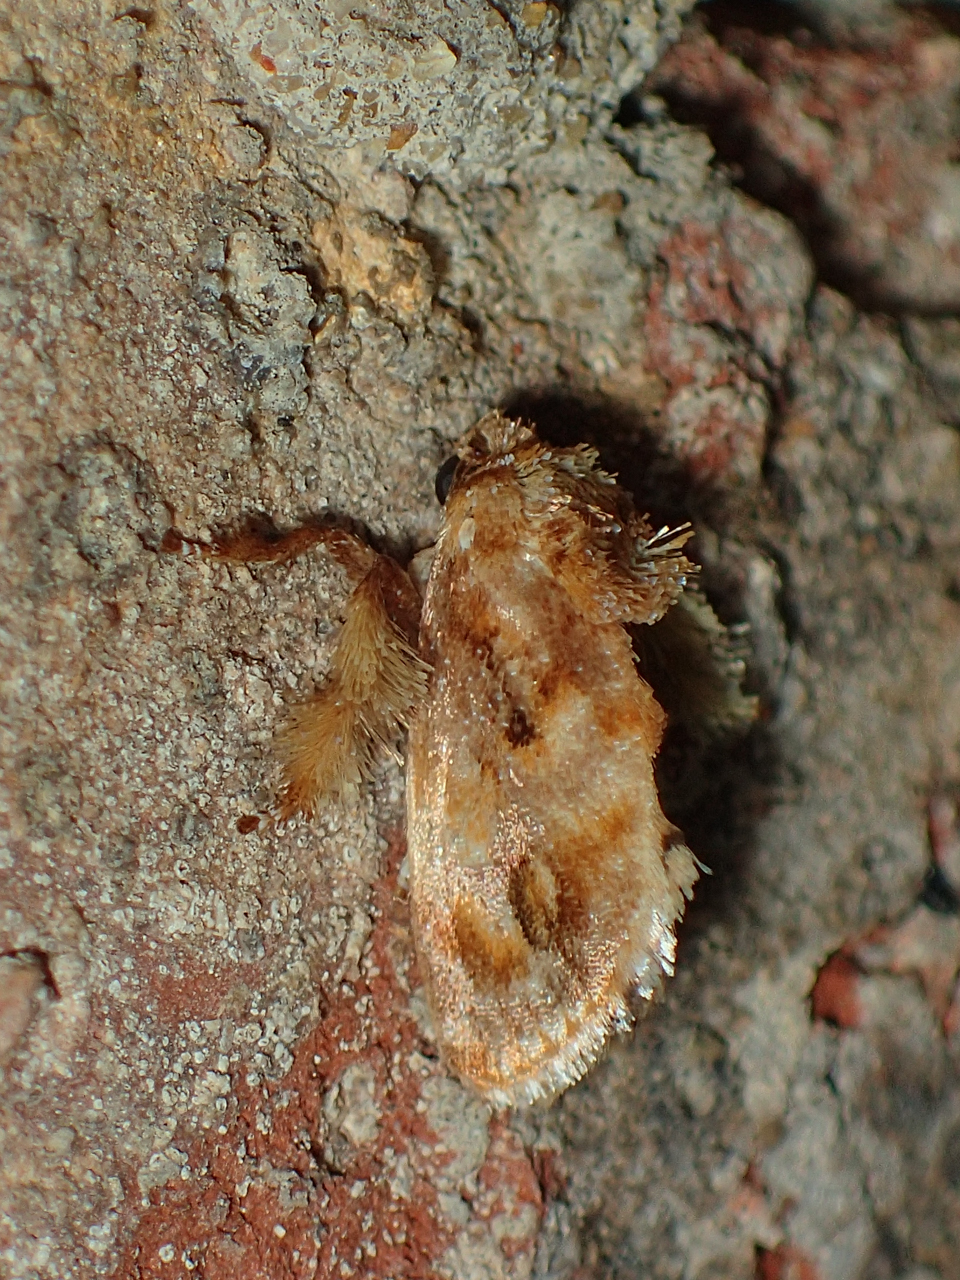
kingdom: Animalia
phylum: Arthropoda
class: Insecta
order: Lepidoptera
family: Limacodidae
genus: Isochaetes
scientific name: Isochaetes beutenmuelleri
